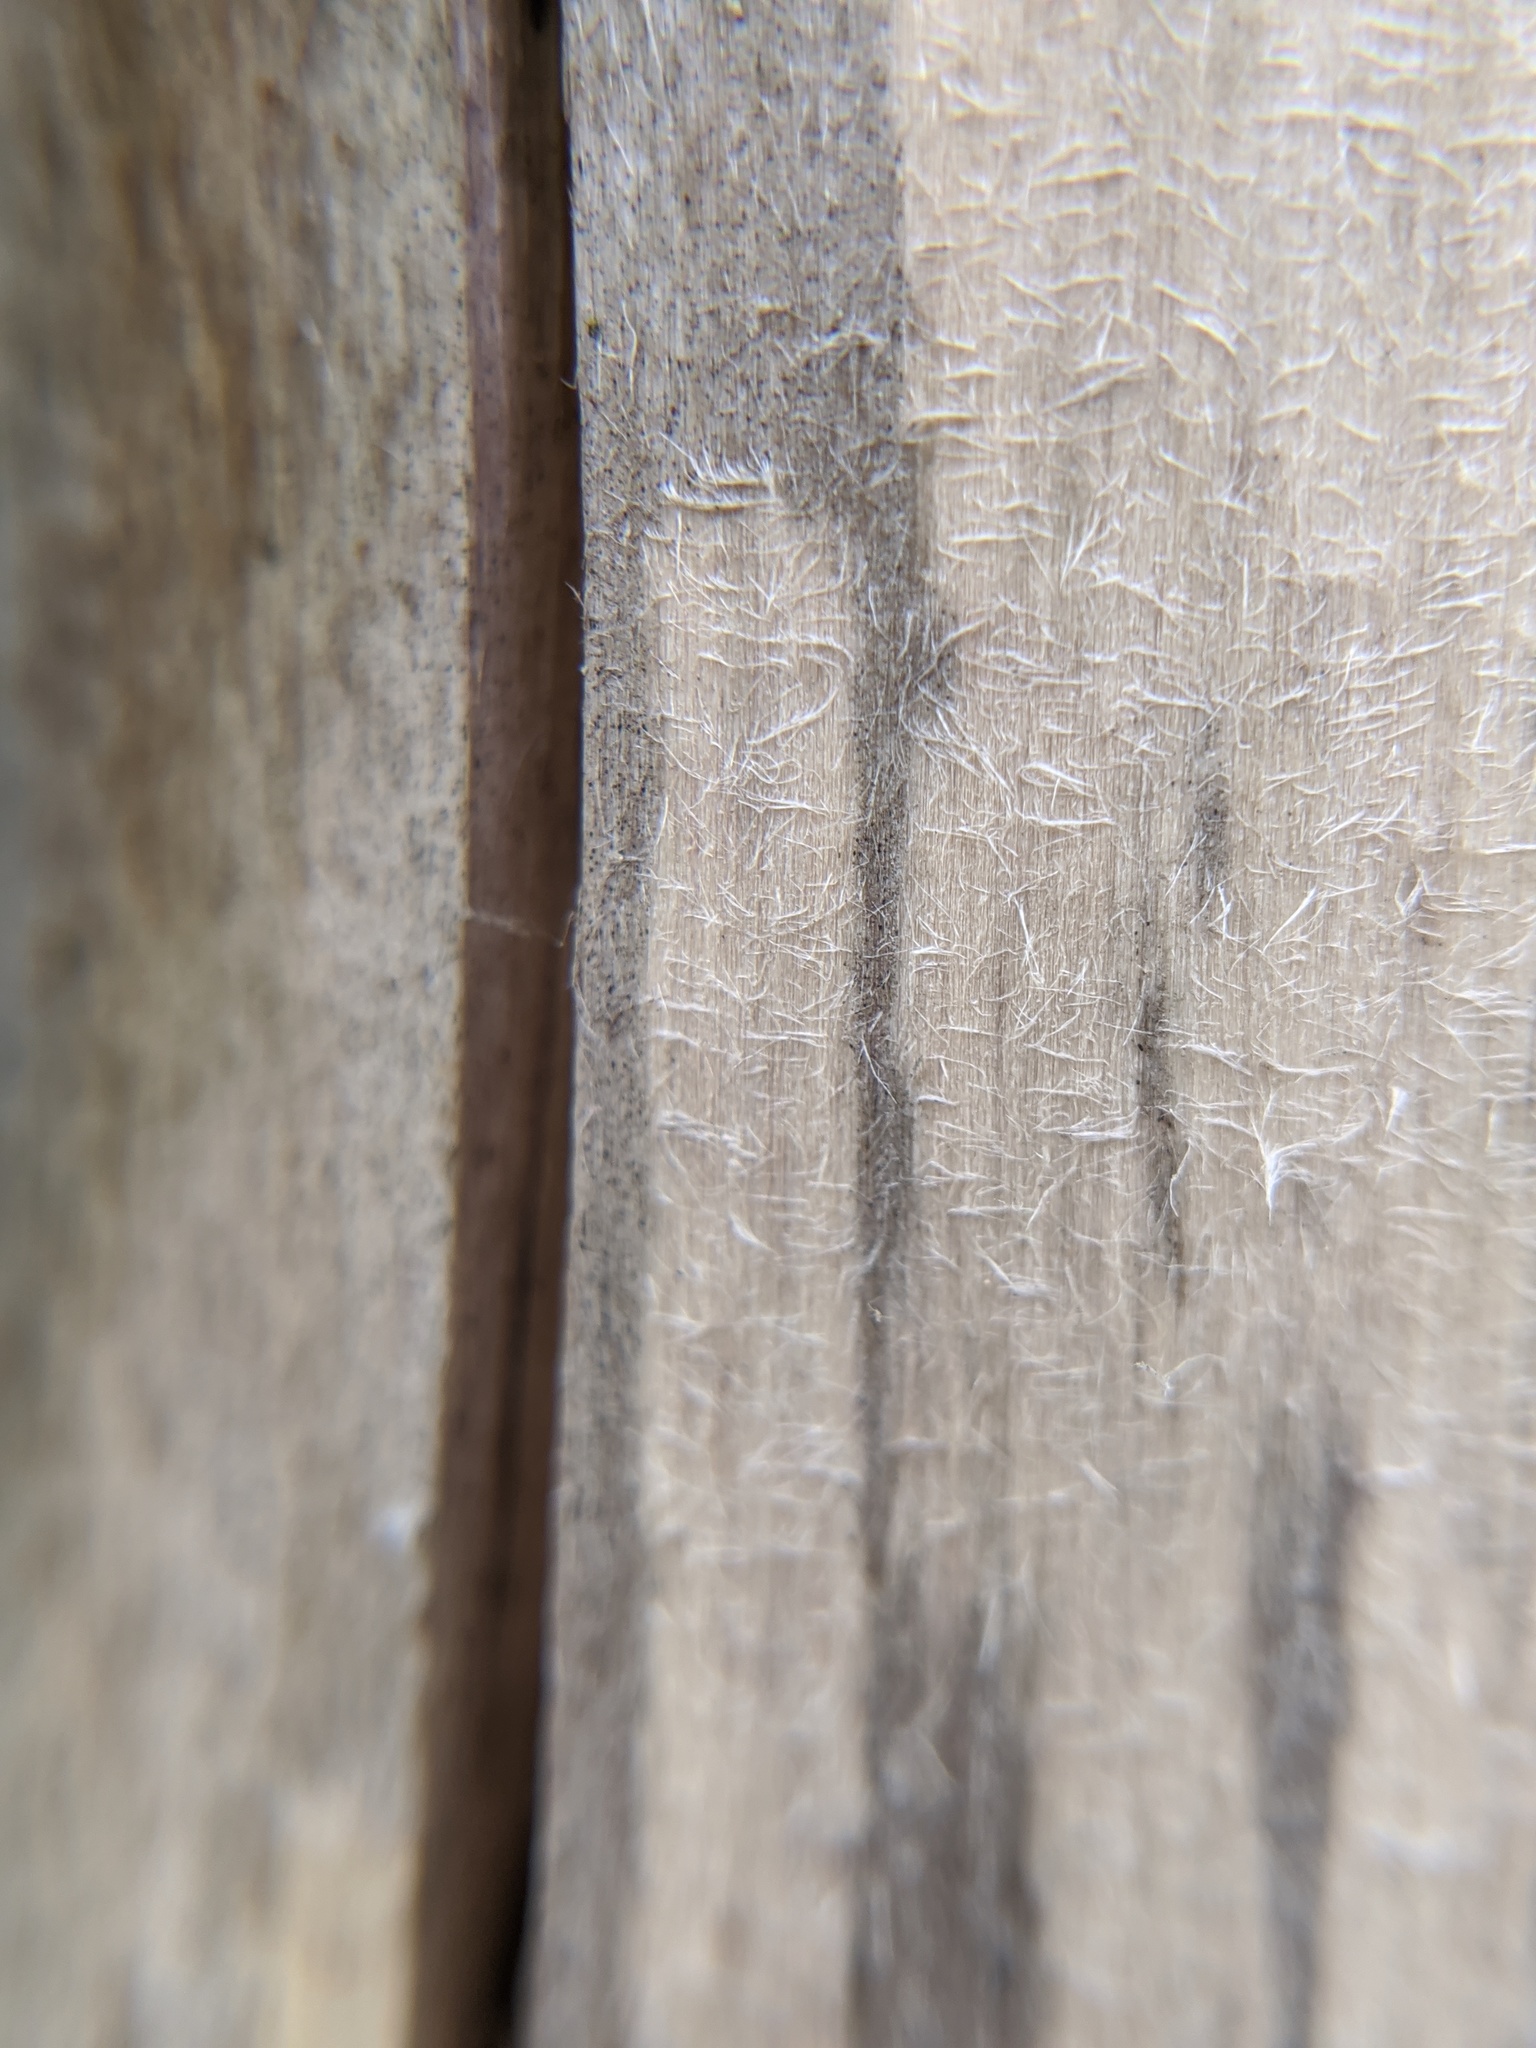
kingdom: Animalia
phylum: Arthropoda
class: Insecta
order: Hymenoptera
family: Vespidae
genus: Dolichovespula
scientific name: Dolichovespula maculata
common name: Bald-faced hornet
